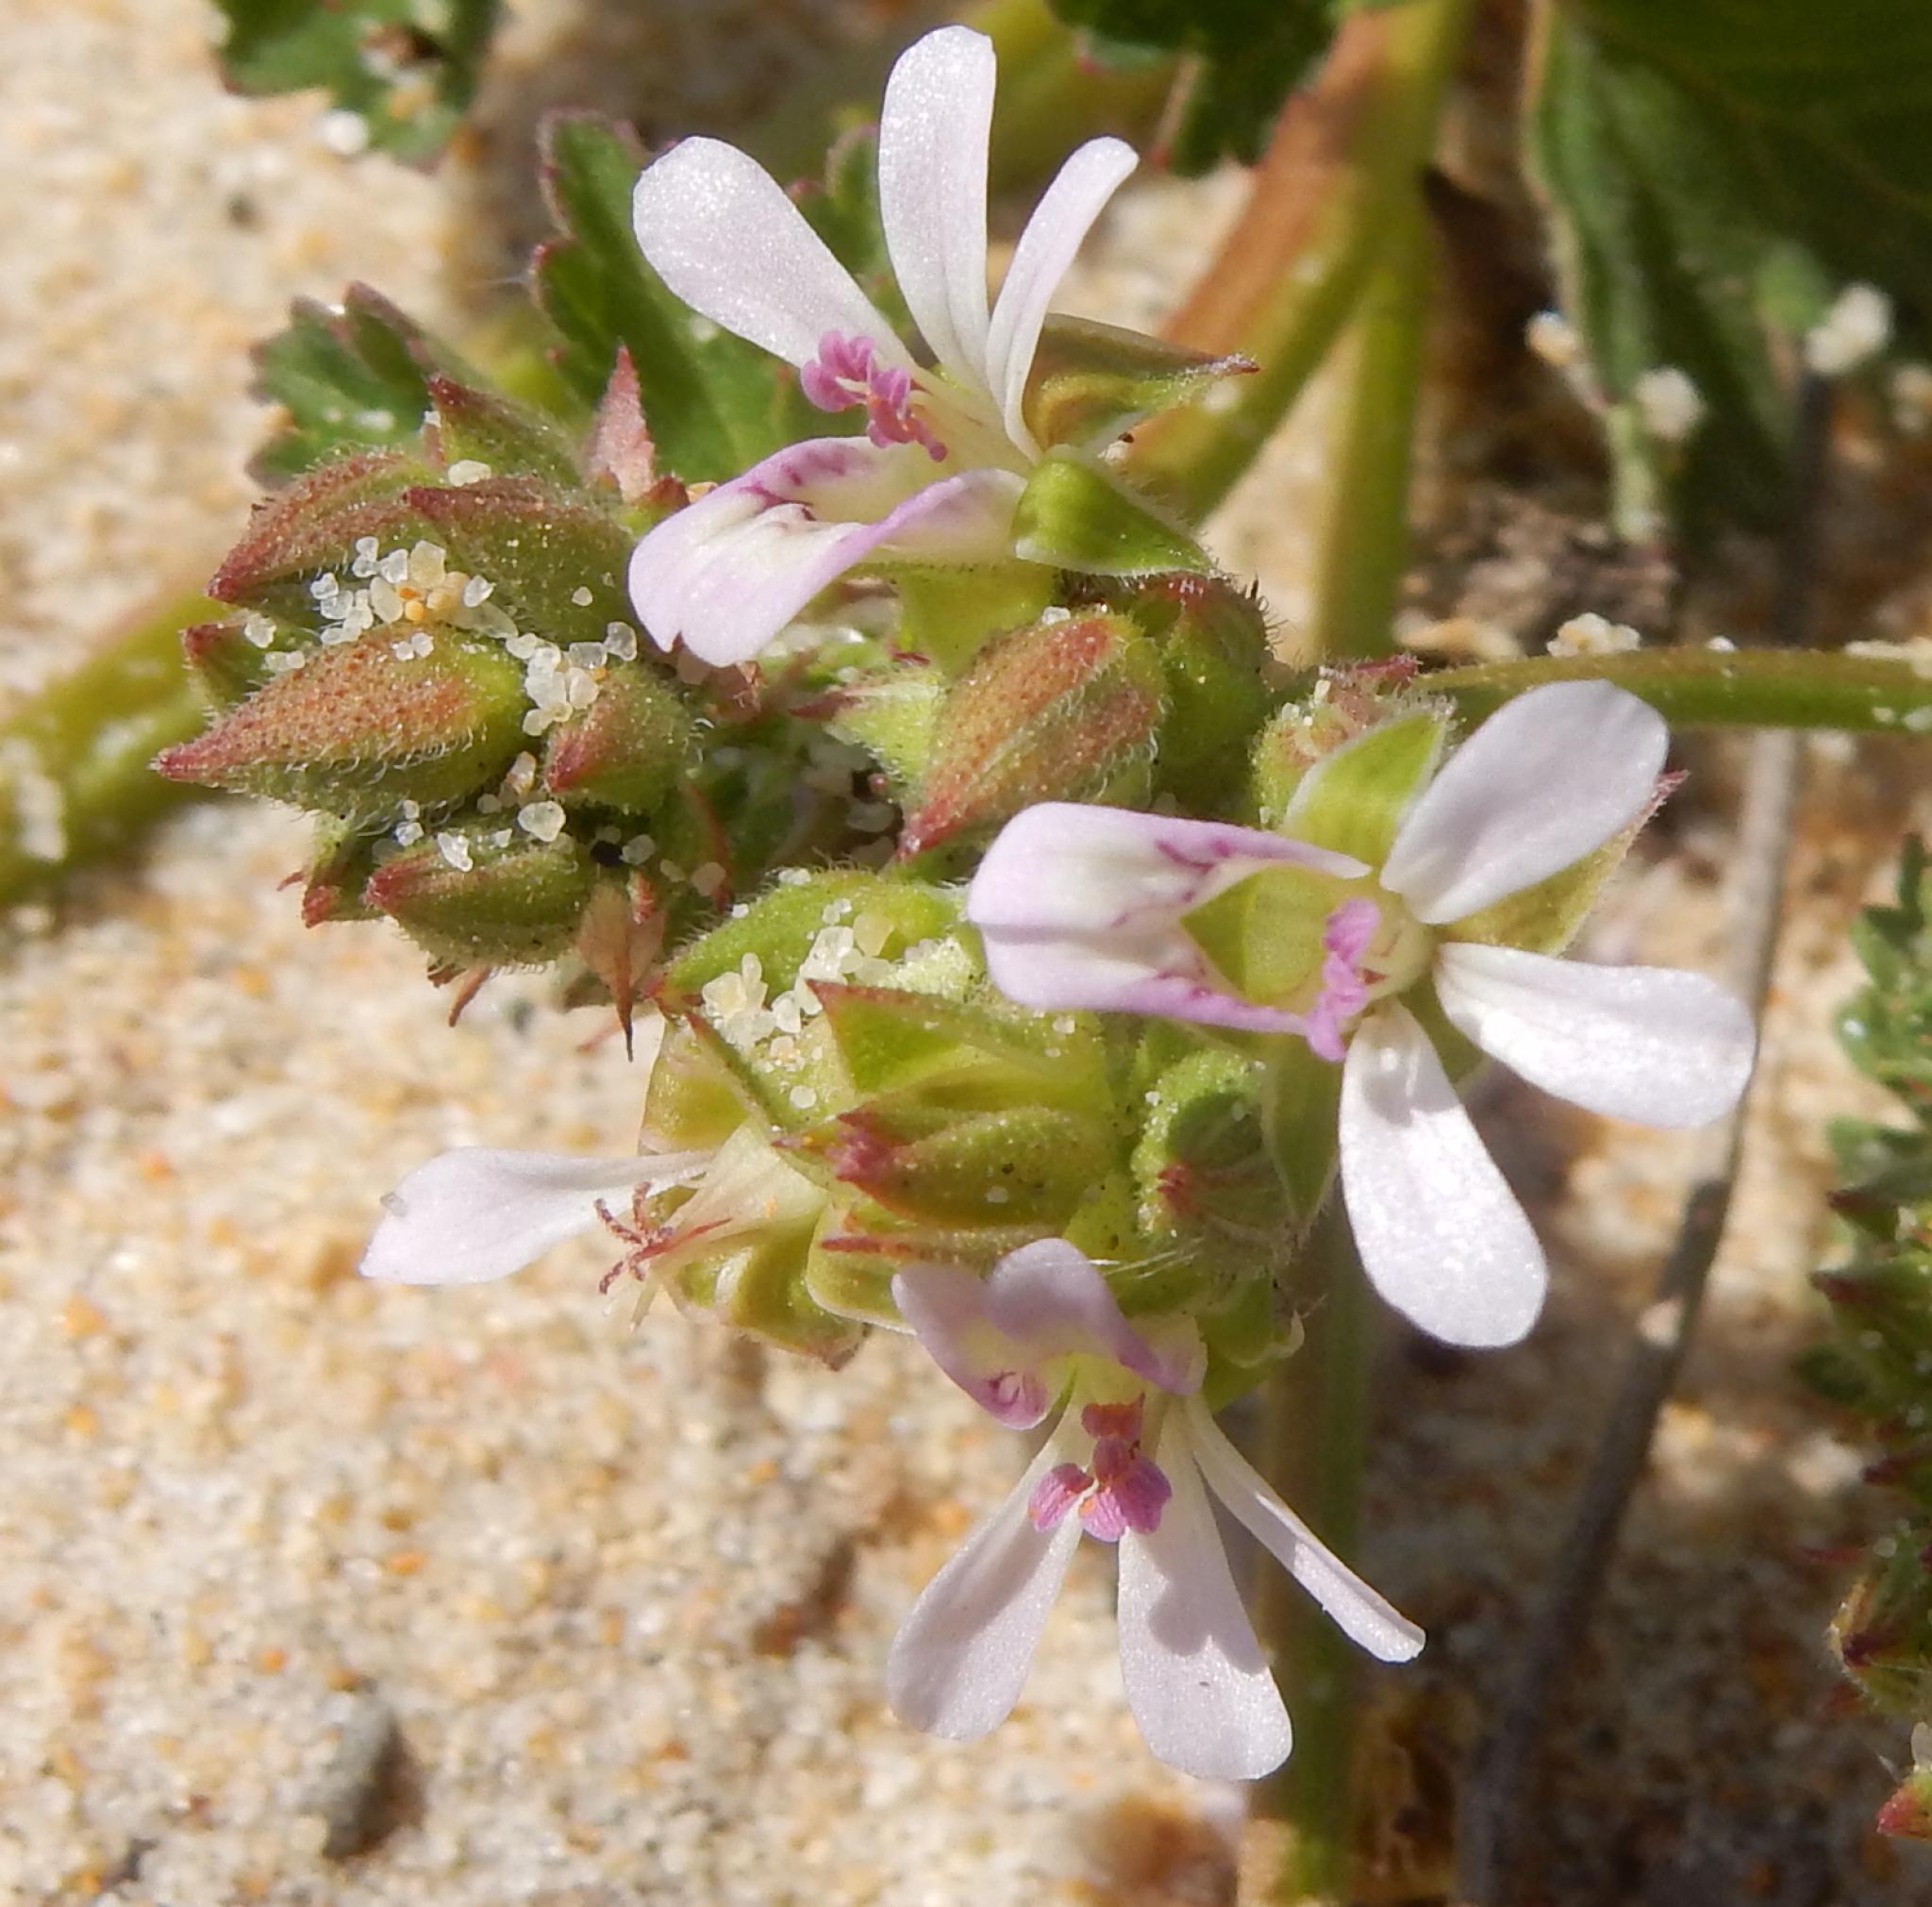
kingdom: Plantae
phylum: Tracheophyta
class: Magnoliopsida
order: Geraniales
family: Geraniaceae
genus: Pelargonium
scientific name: Pelargonium grossularioides
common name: Gooseberry geranium
